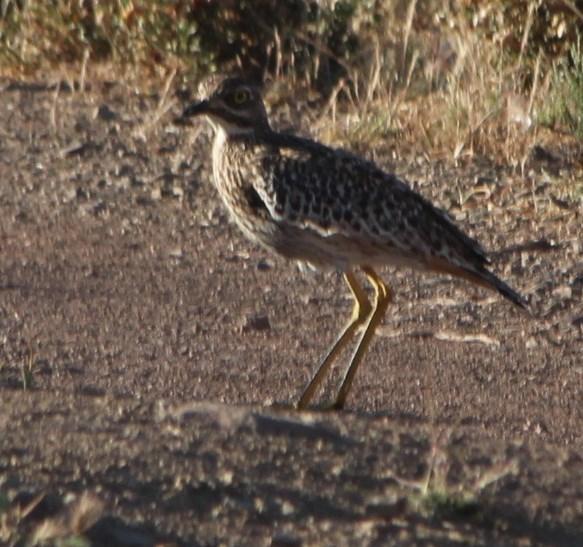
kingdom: Animalia
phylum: Chordata
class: Aves
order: Charadriiformes
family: Burhinidae
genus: Burhinus
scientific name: Burhinus capensis
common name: Spotted thick-knee
